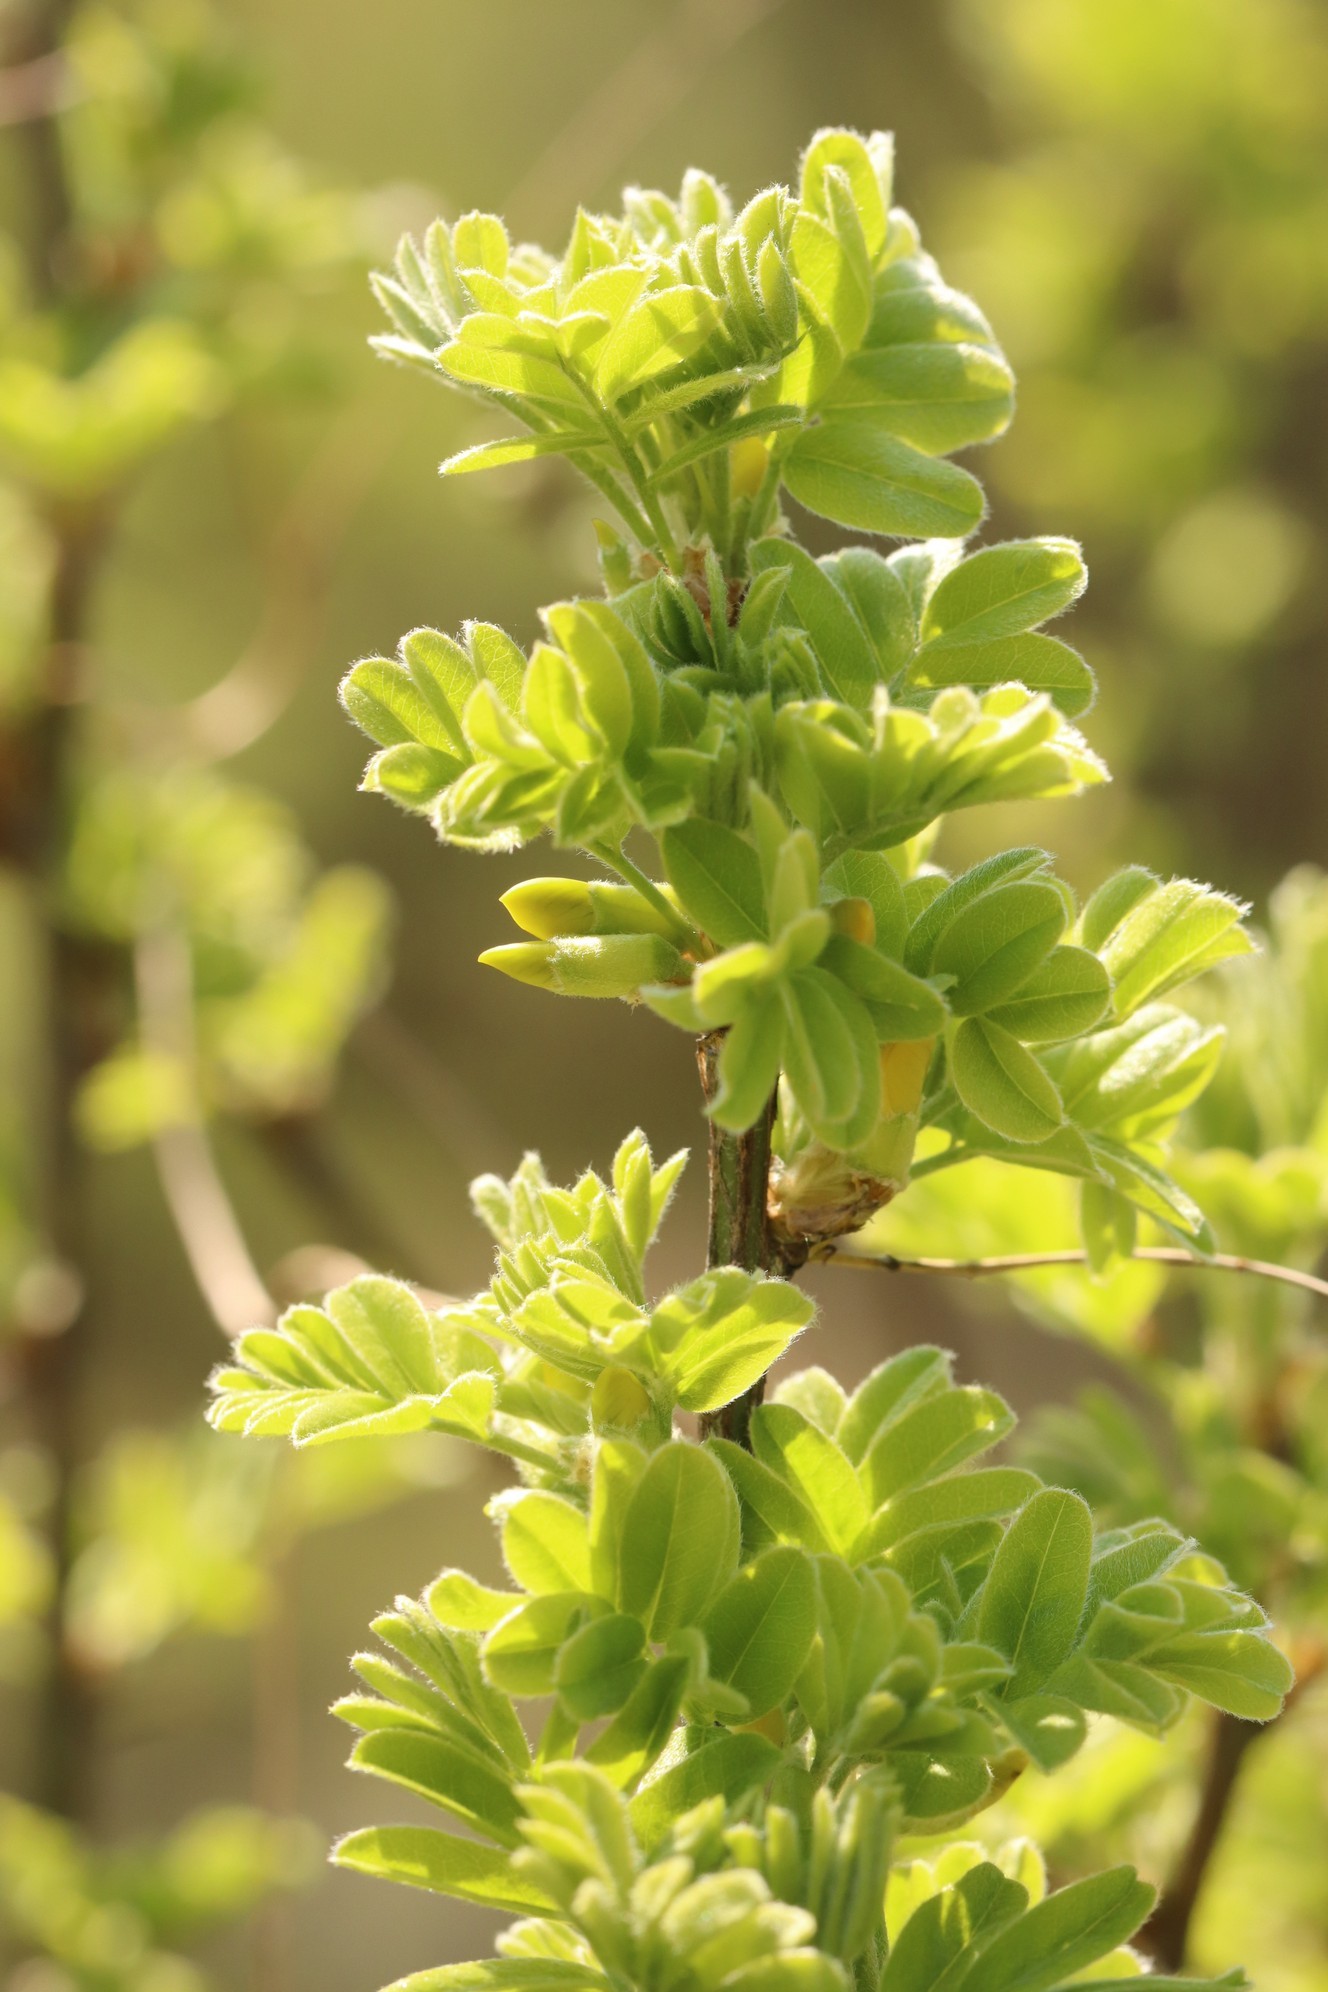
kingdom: Plantae
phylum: Tracheophyta
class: Magnoliopsida
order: Fabales
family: Fabaceae
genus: Caragana
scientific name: Caragana arborescens
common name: Siberian peashrub
